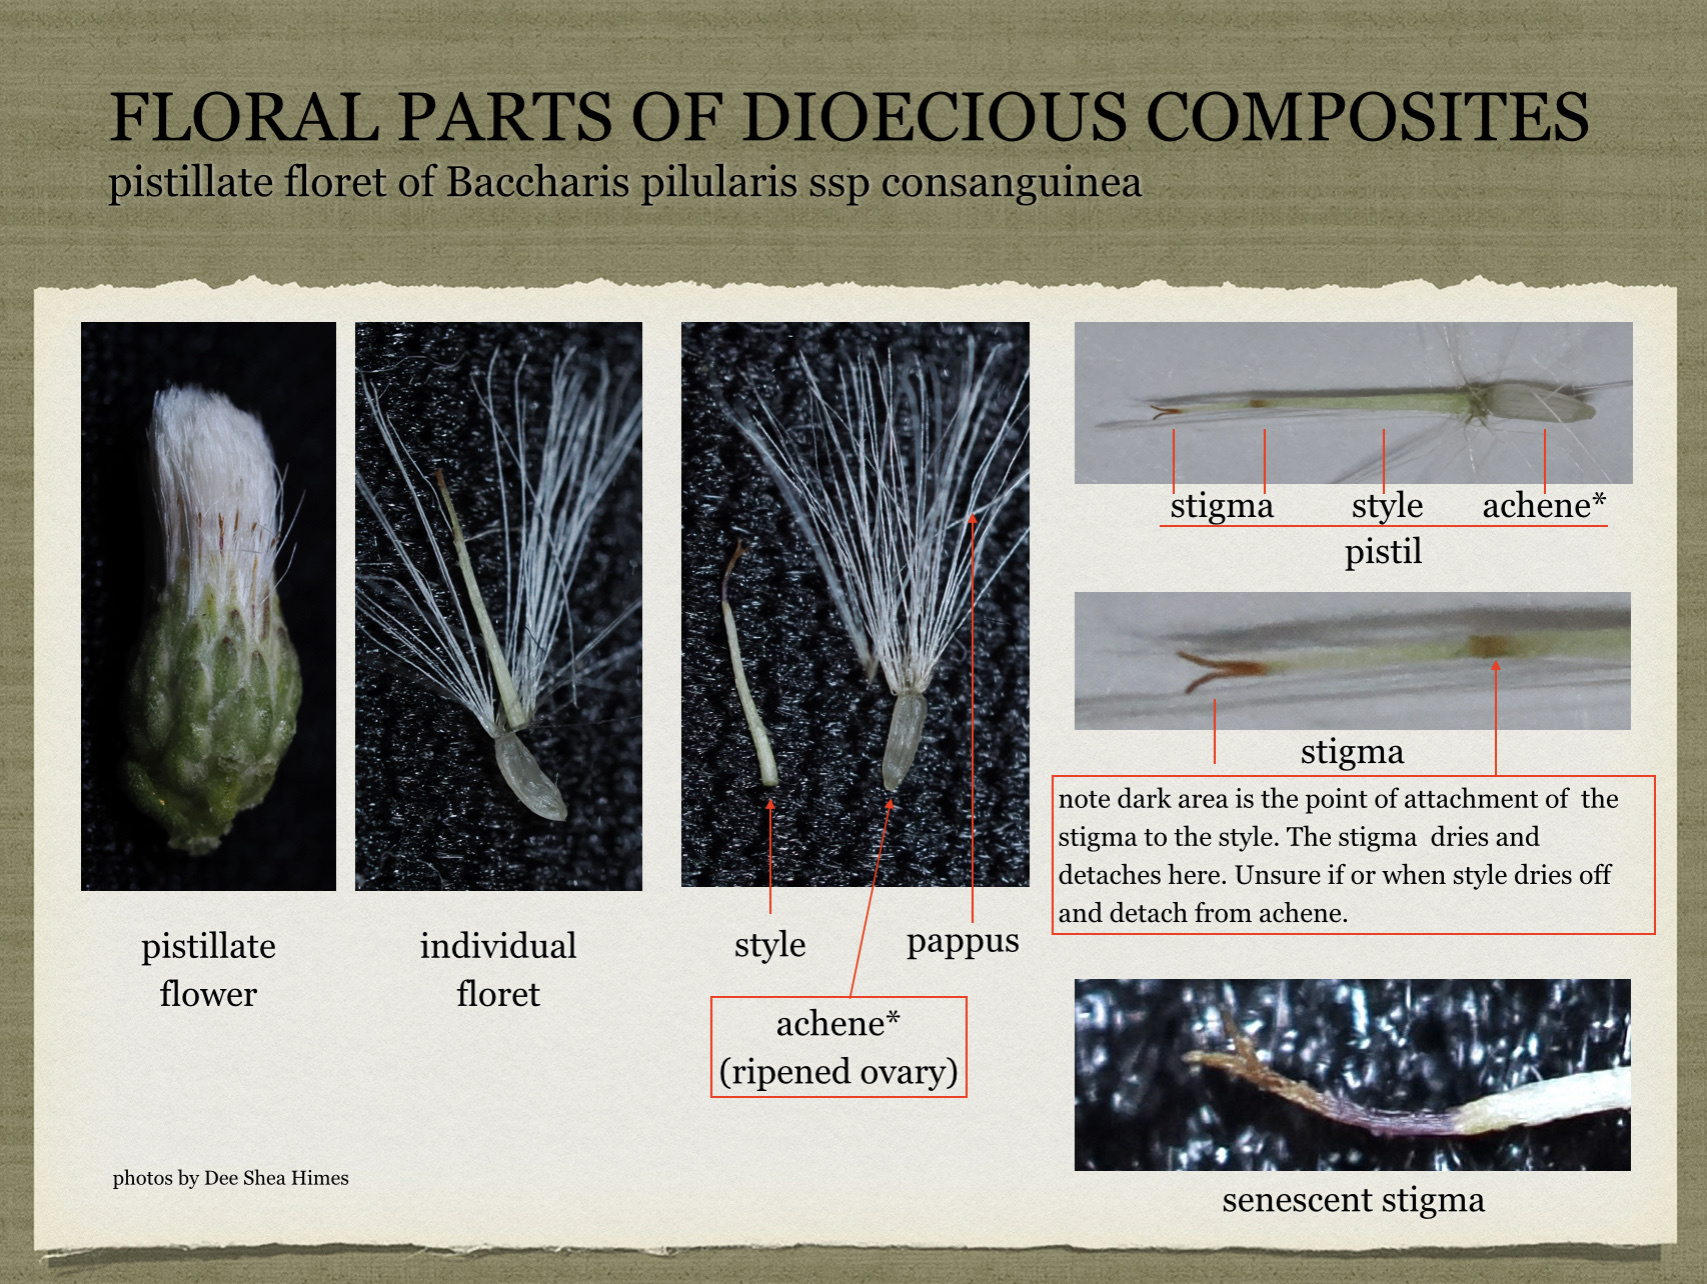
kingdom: Plantae
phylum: Tracheophyta
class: Magnoliopsida
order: Asterales
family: Asteraceae
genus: Baccharis
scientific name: Baccharis pilularis
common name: Coyotebrush
